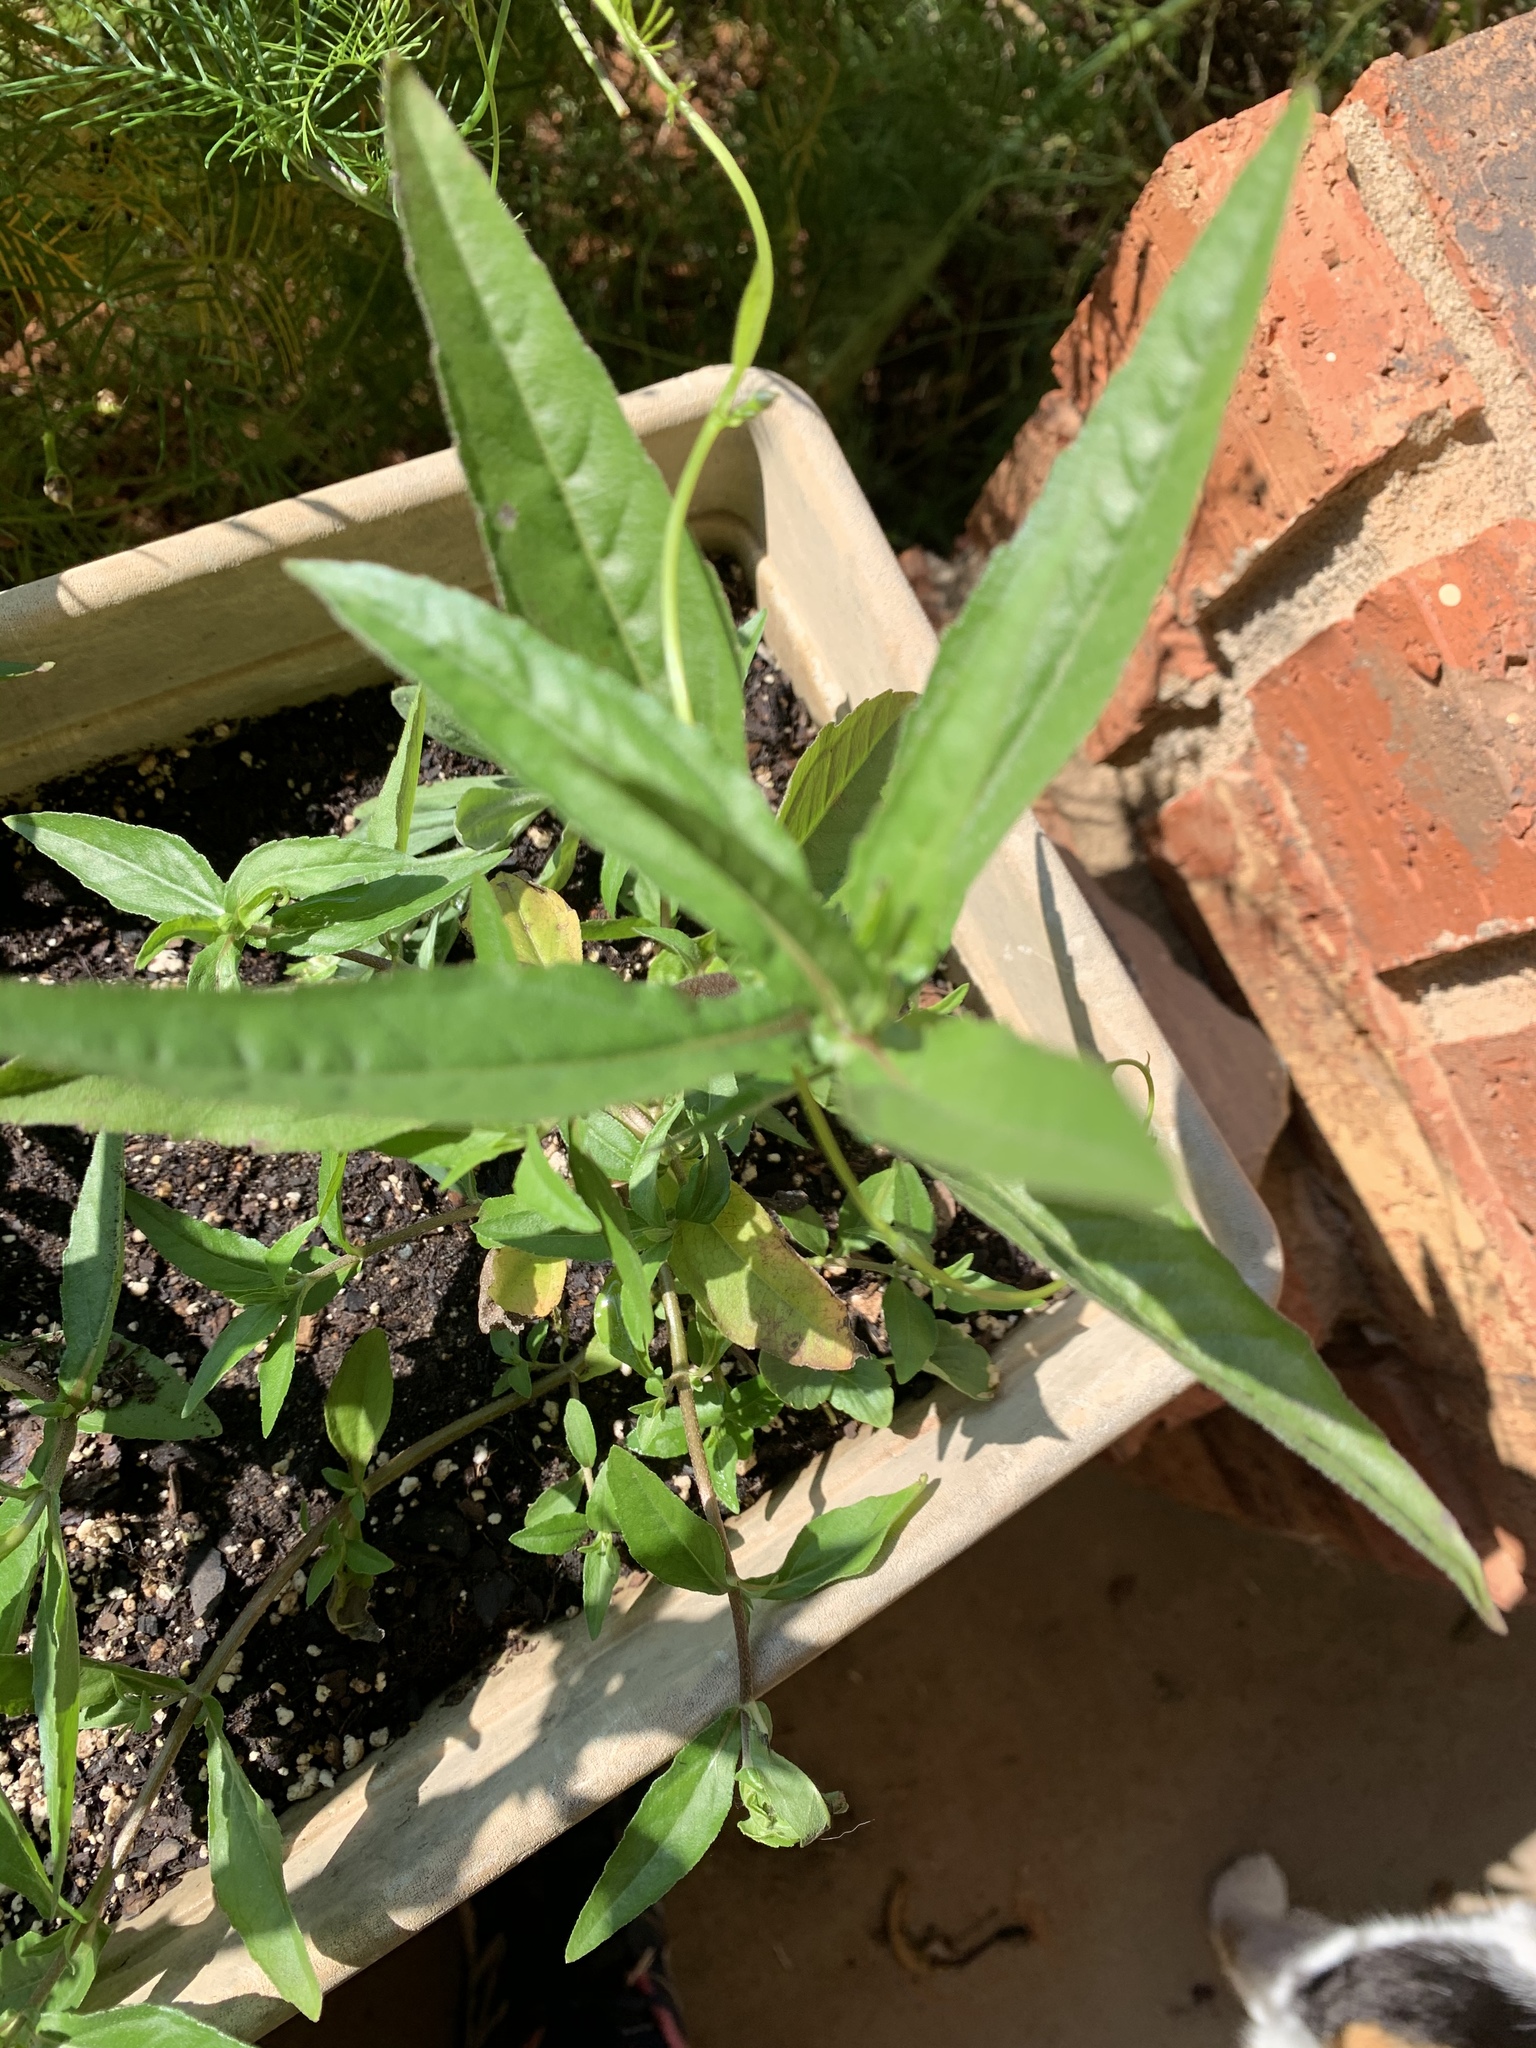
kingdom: Plantae
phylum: Tracheophyta
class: Magnoliopsida
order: Asterales
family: Asteraceae
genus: Eclipta
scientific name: Eclipta prostrata
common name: False daisy
